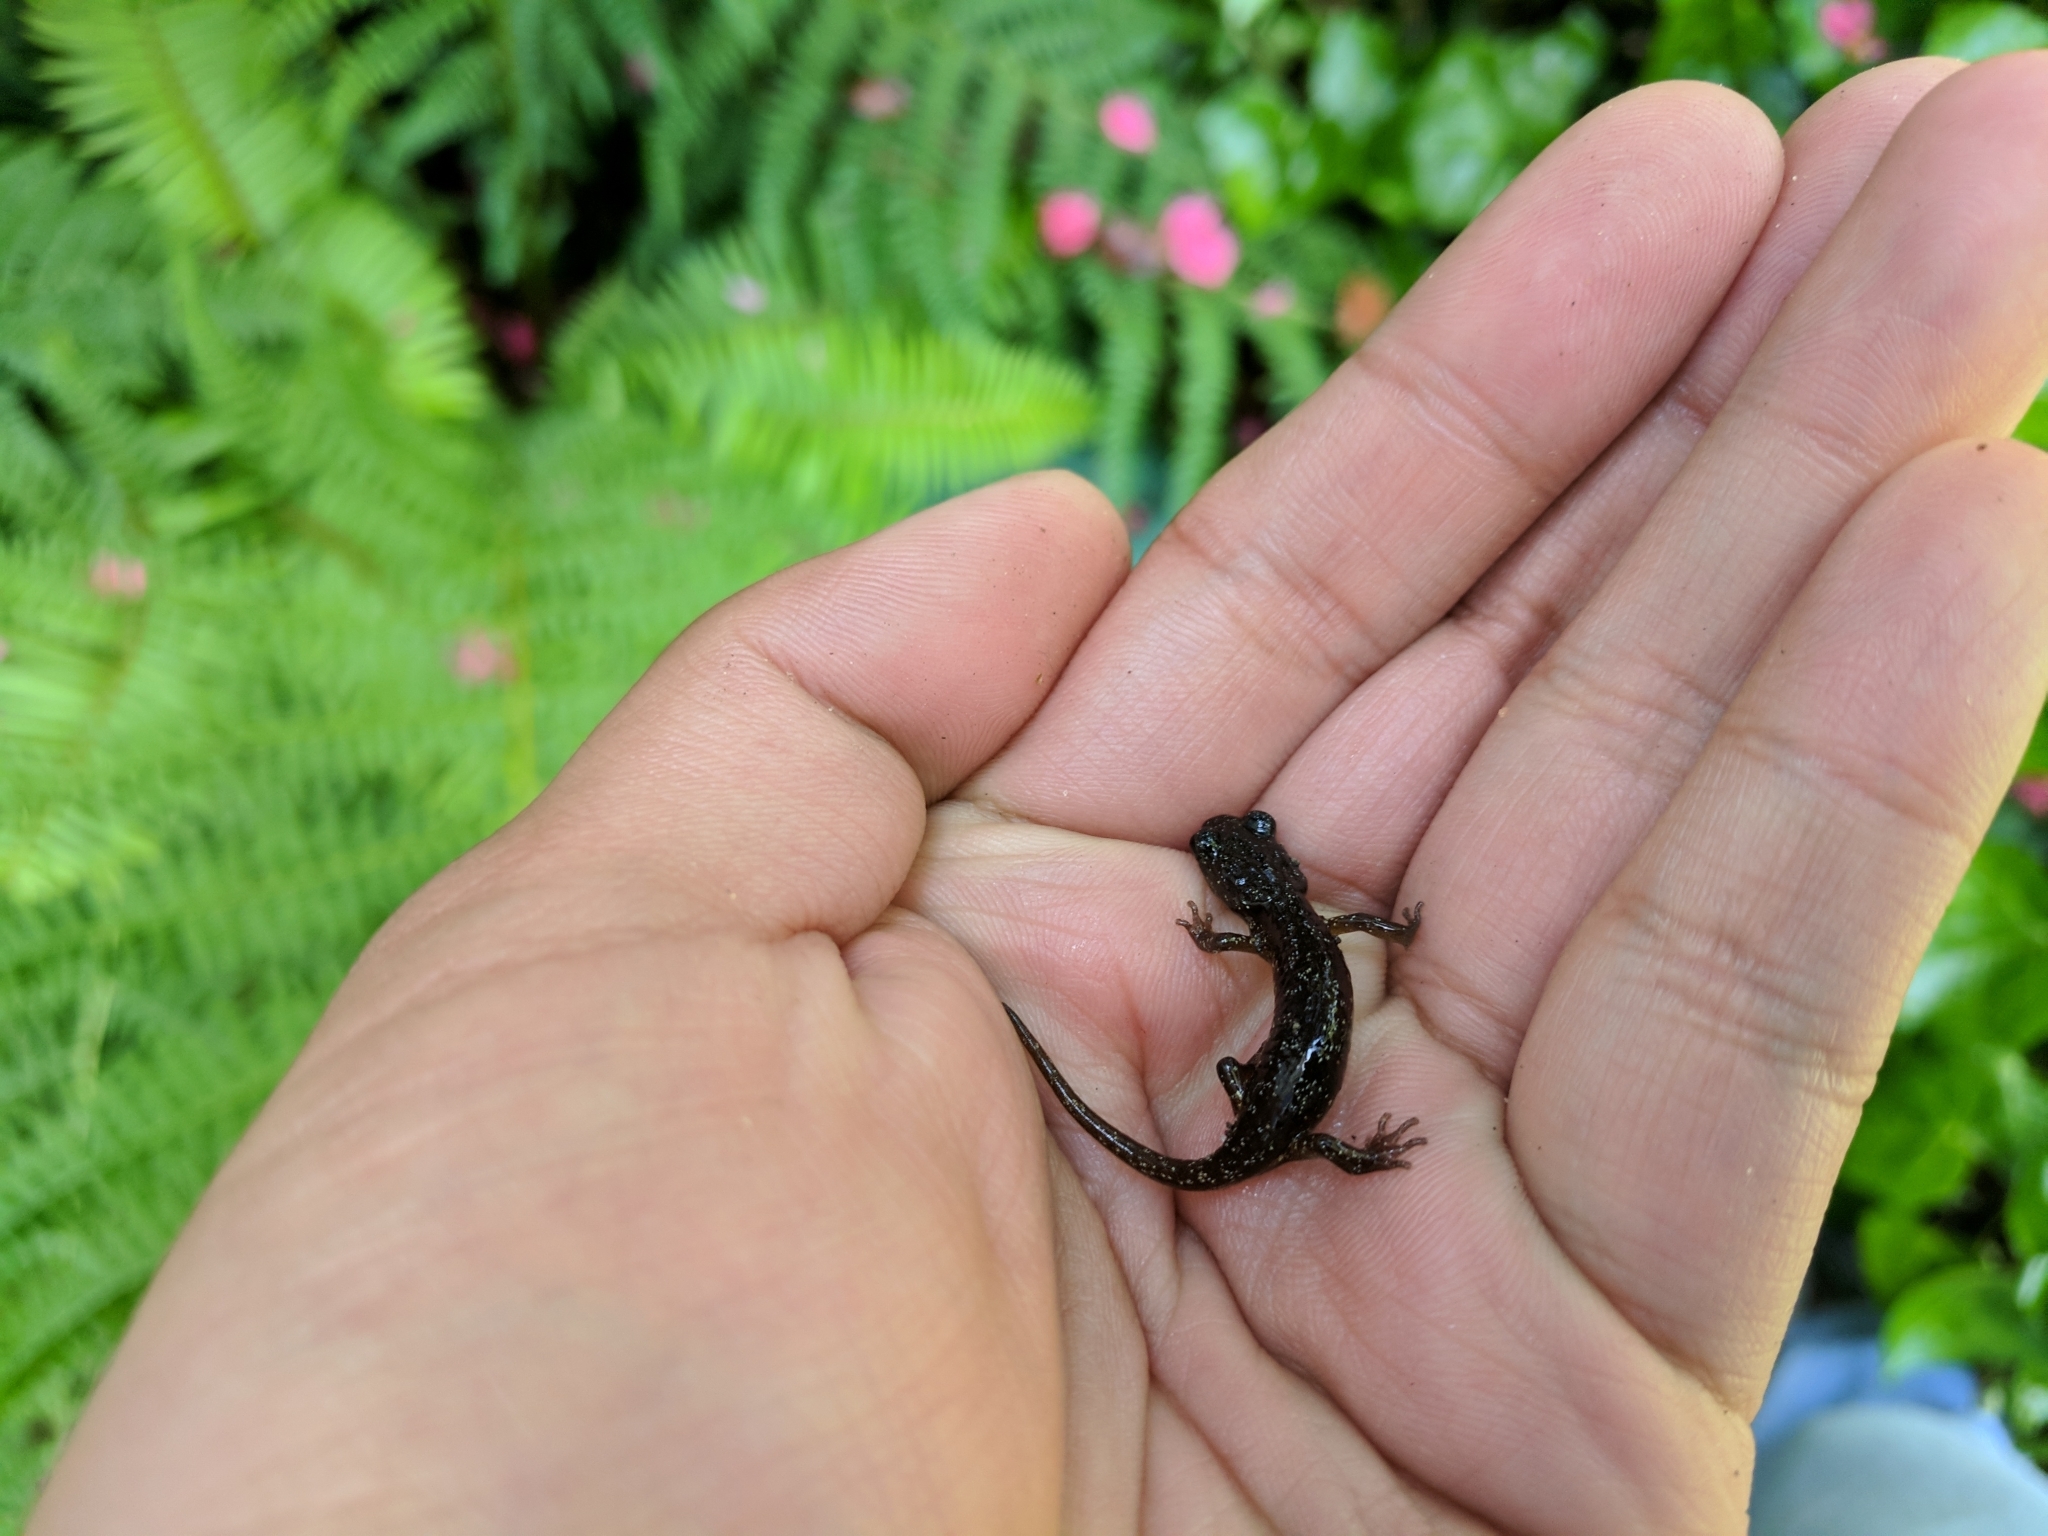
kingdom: Animalia
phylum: Chordata
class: Amphibia
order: Caudata
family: Plethodontidae
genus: Aneides
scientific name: Aneides lugubris
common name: Arboreal salamander
